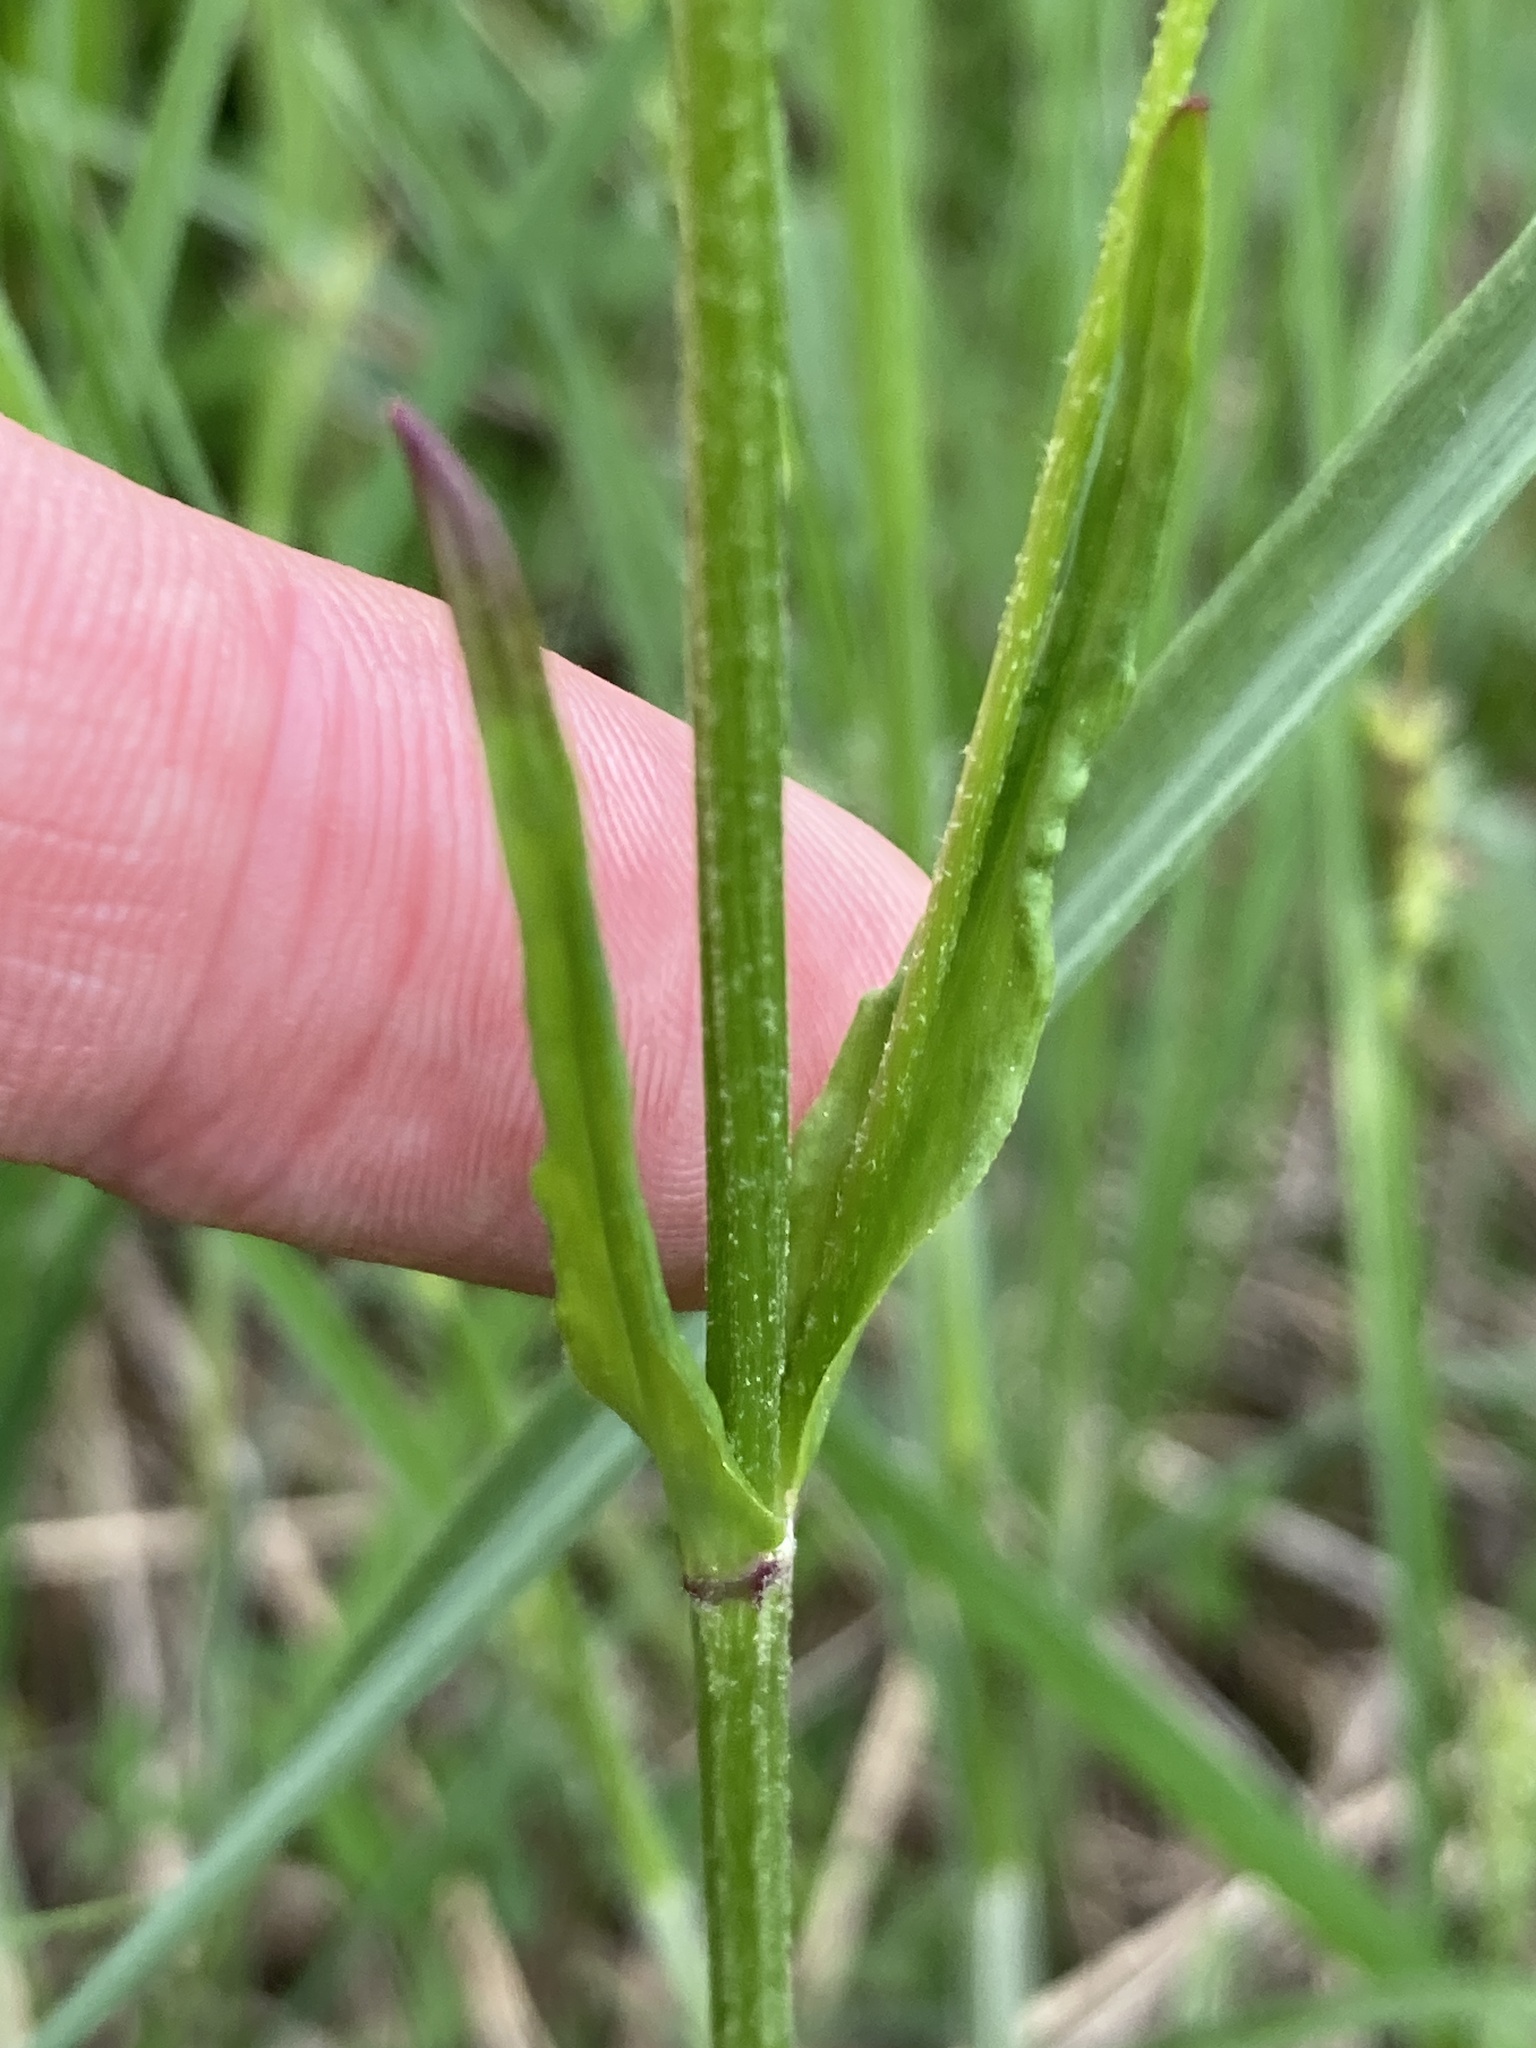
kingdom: Plantae
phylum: Tracheophyta
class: Magnoliopsida
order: Caryophyllales
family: Caryophyllaceae
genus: Silene
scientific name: Silene flos-cuculi
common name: Ragged-robin
